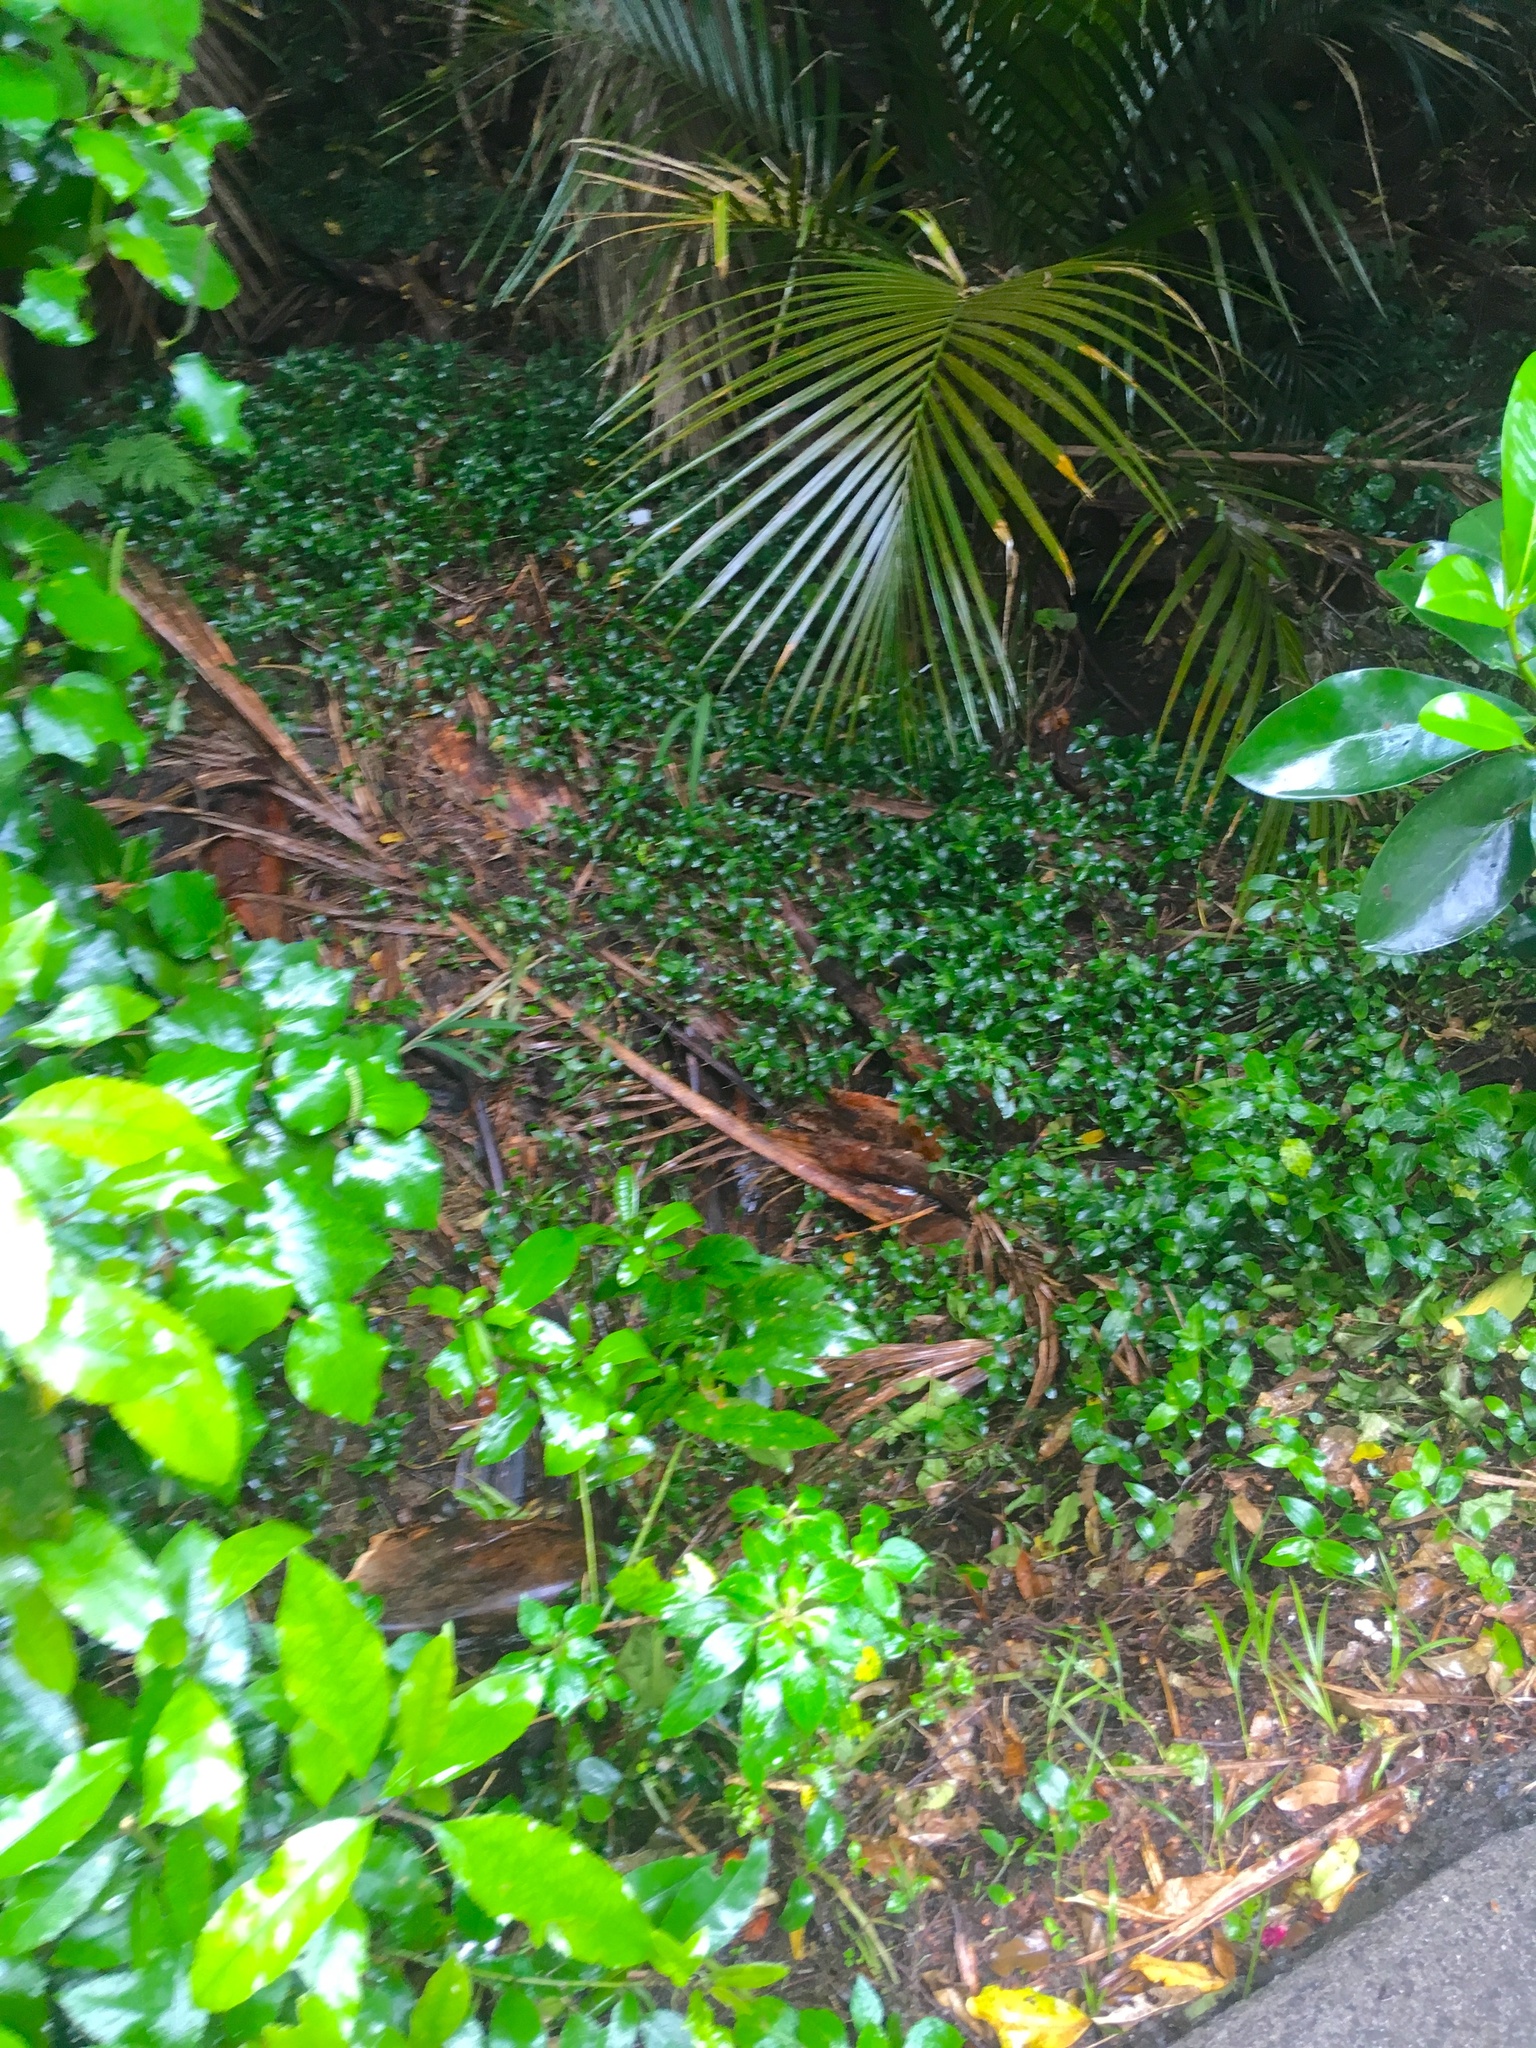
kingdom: Plantae
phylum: Tracheophyta
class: Liliopsida
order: Arecales
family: Arecaceae
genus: Rhopalostylis
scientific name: Rhopalostylis sapida
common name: Feather-duster palm
